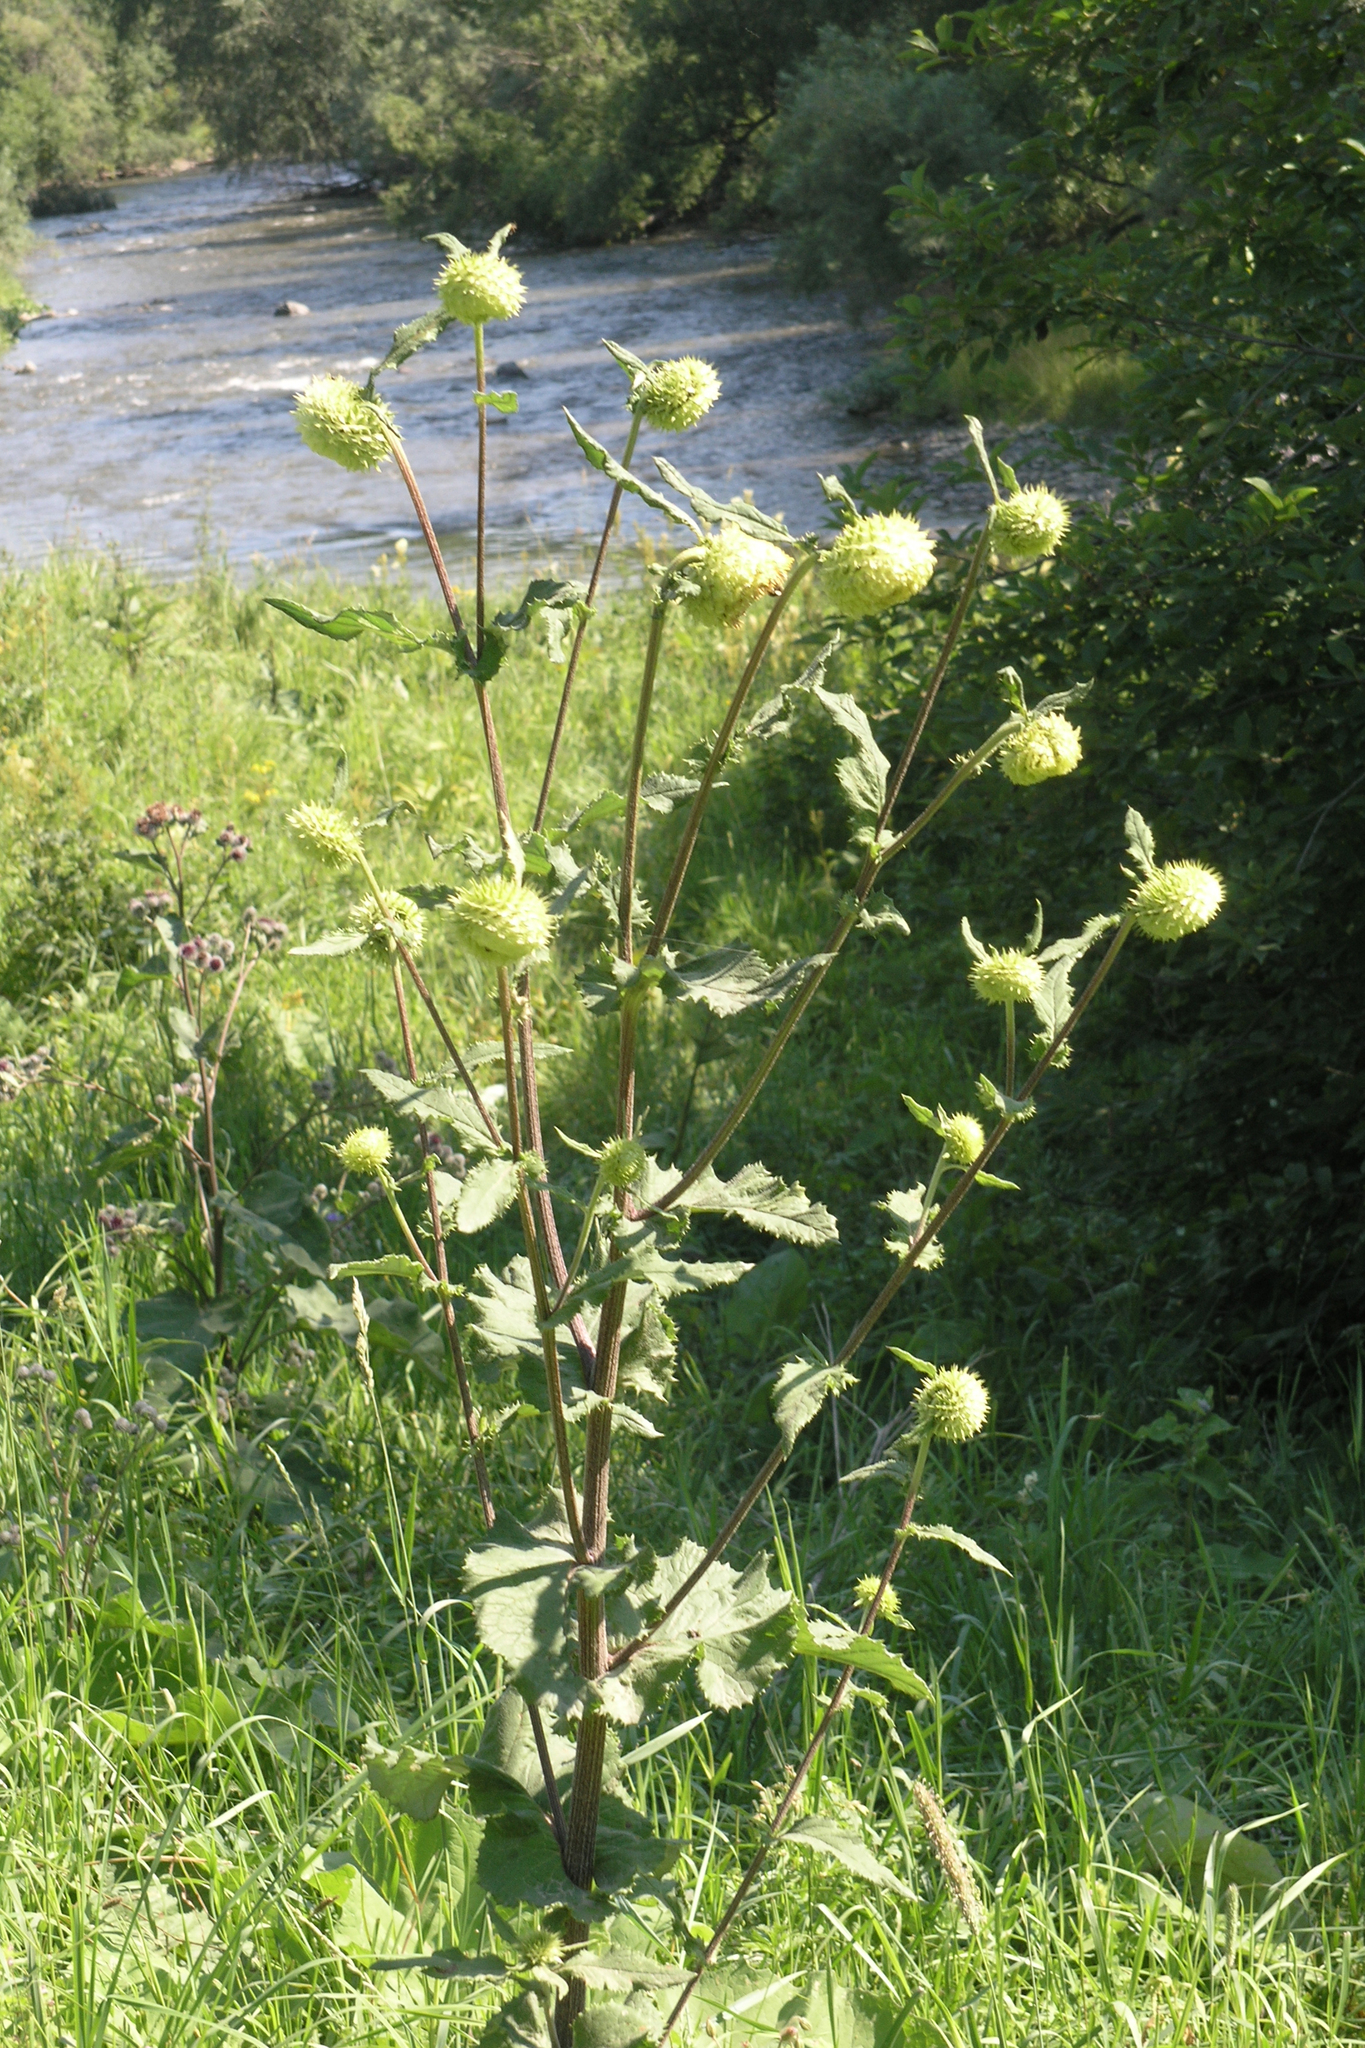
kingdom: Plantae
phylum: Tracheophyta
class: Magnoliopsida
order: Asterales
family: Asteraceae
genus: Alfredia
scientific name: Alfredia cernua
